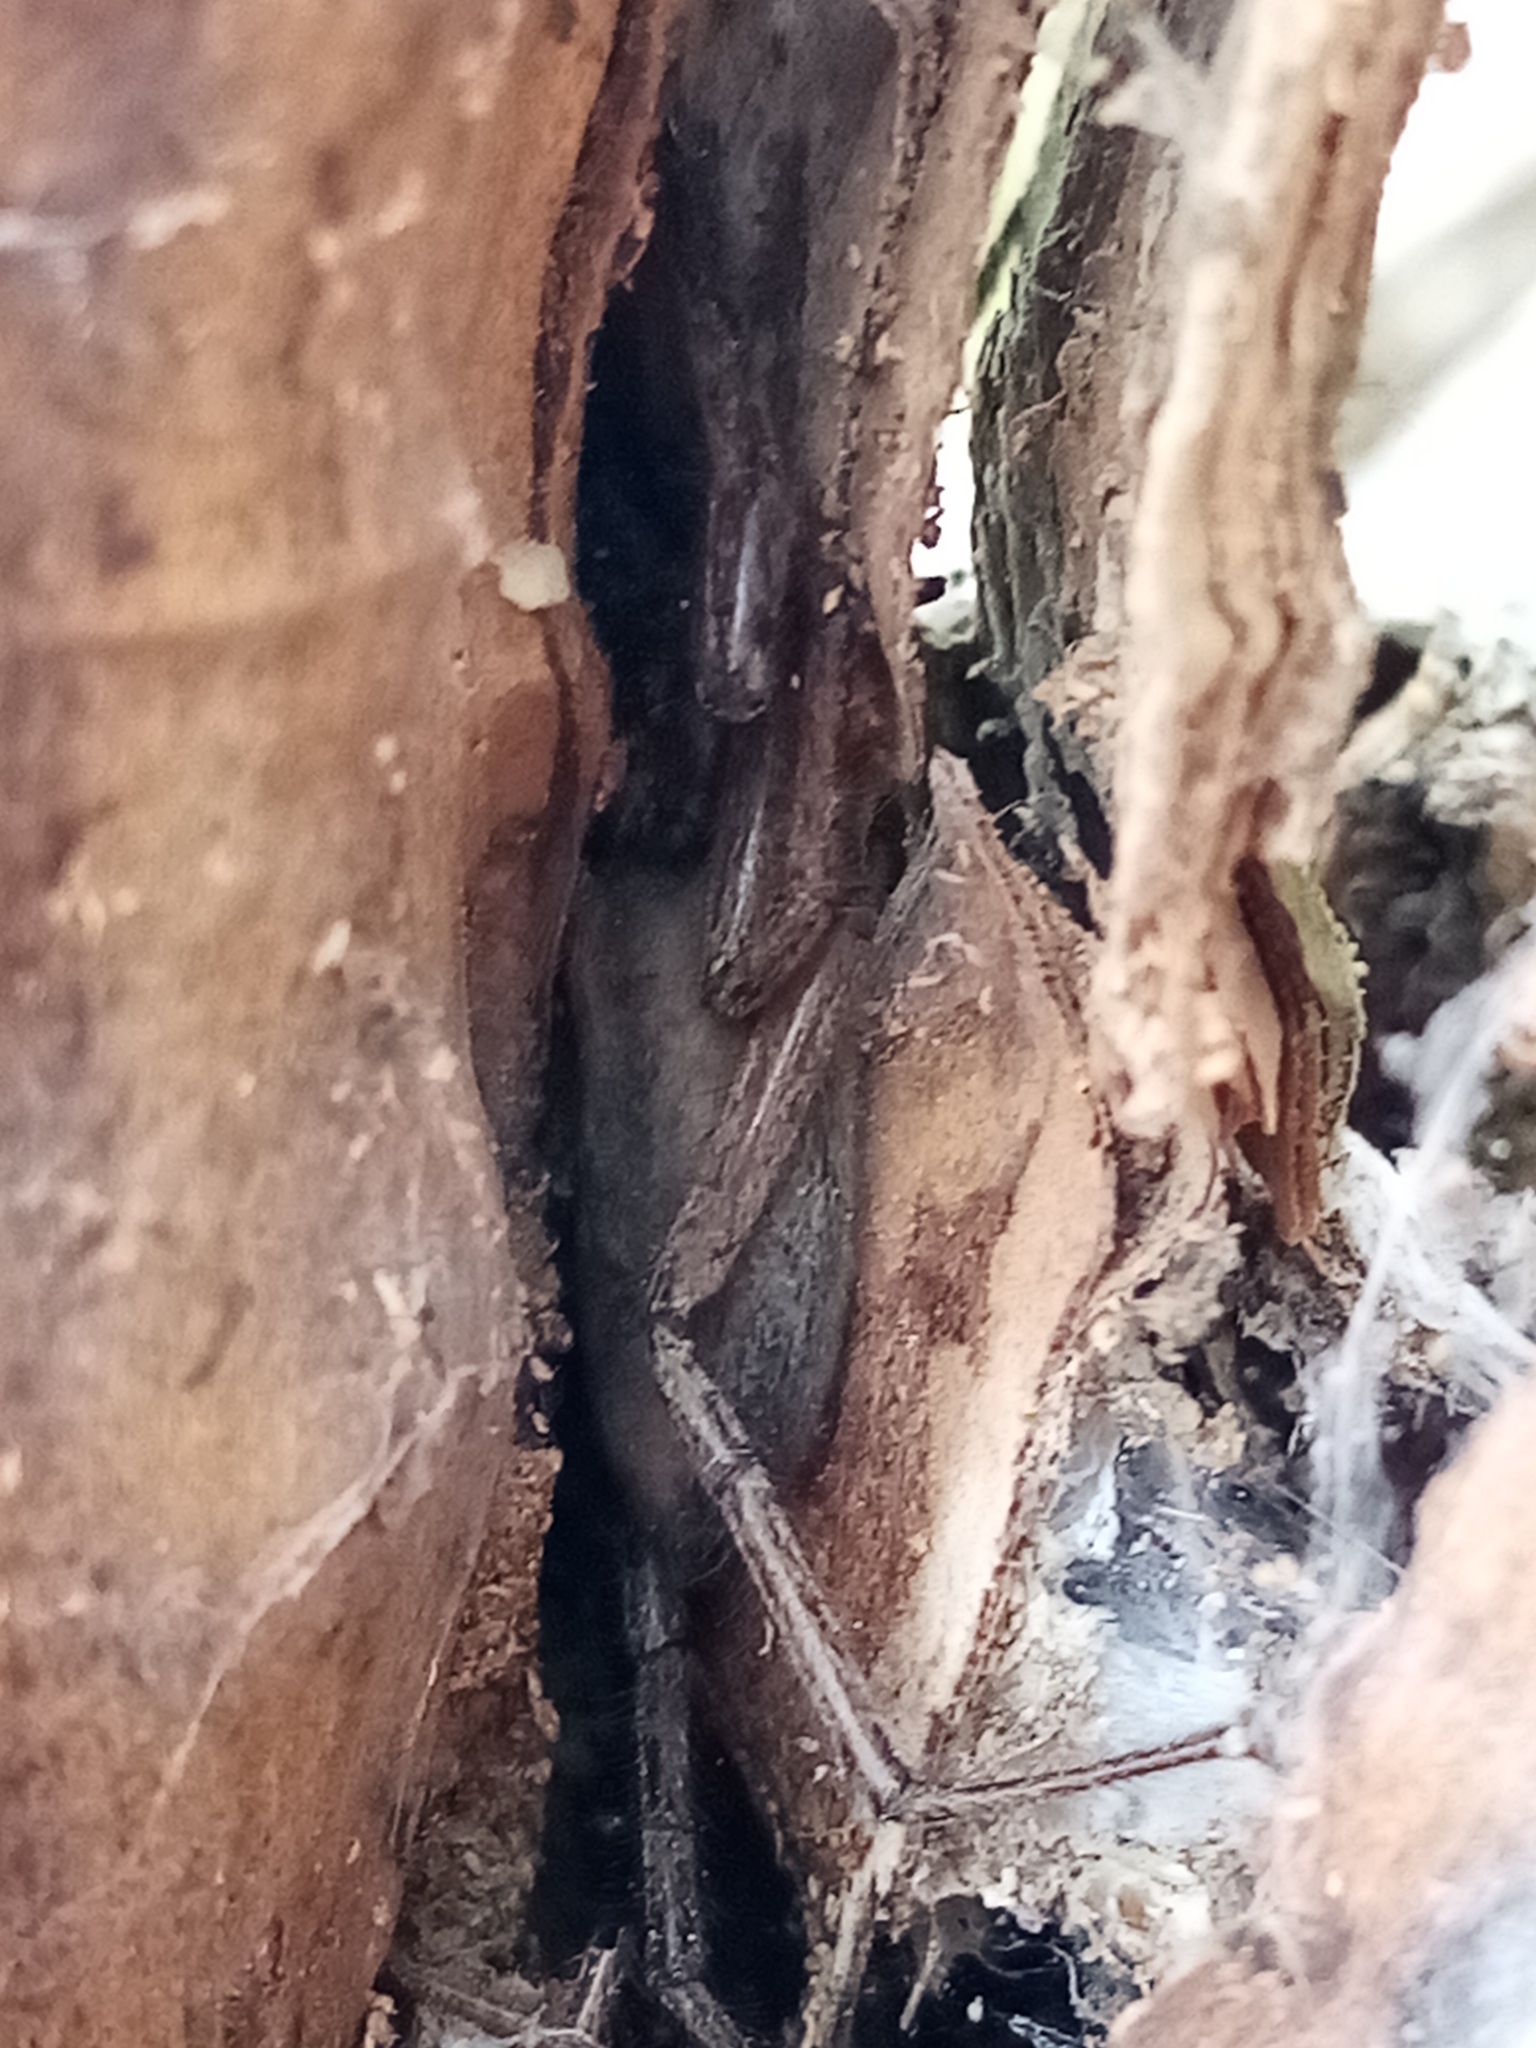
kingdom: Animalia
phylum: Arthropoda
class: Arachnida
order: Araneae
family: Trochanteriidae
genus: Hemicloea
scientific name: Hemicloea rogenhoferi
